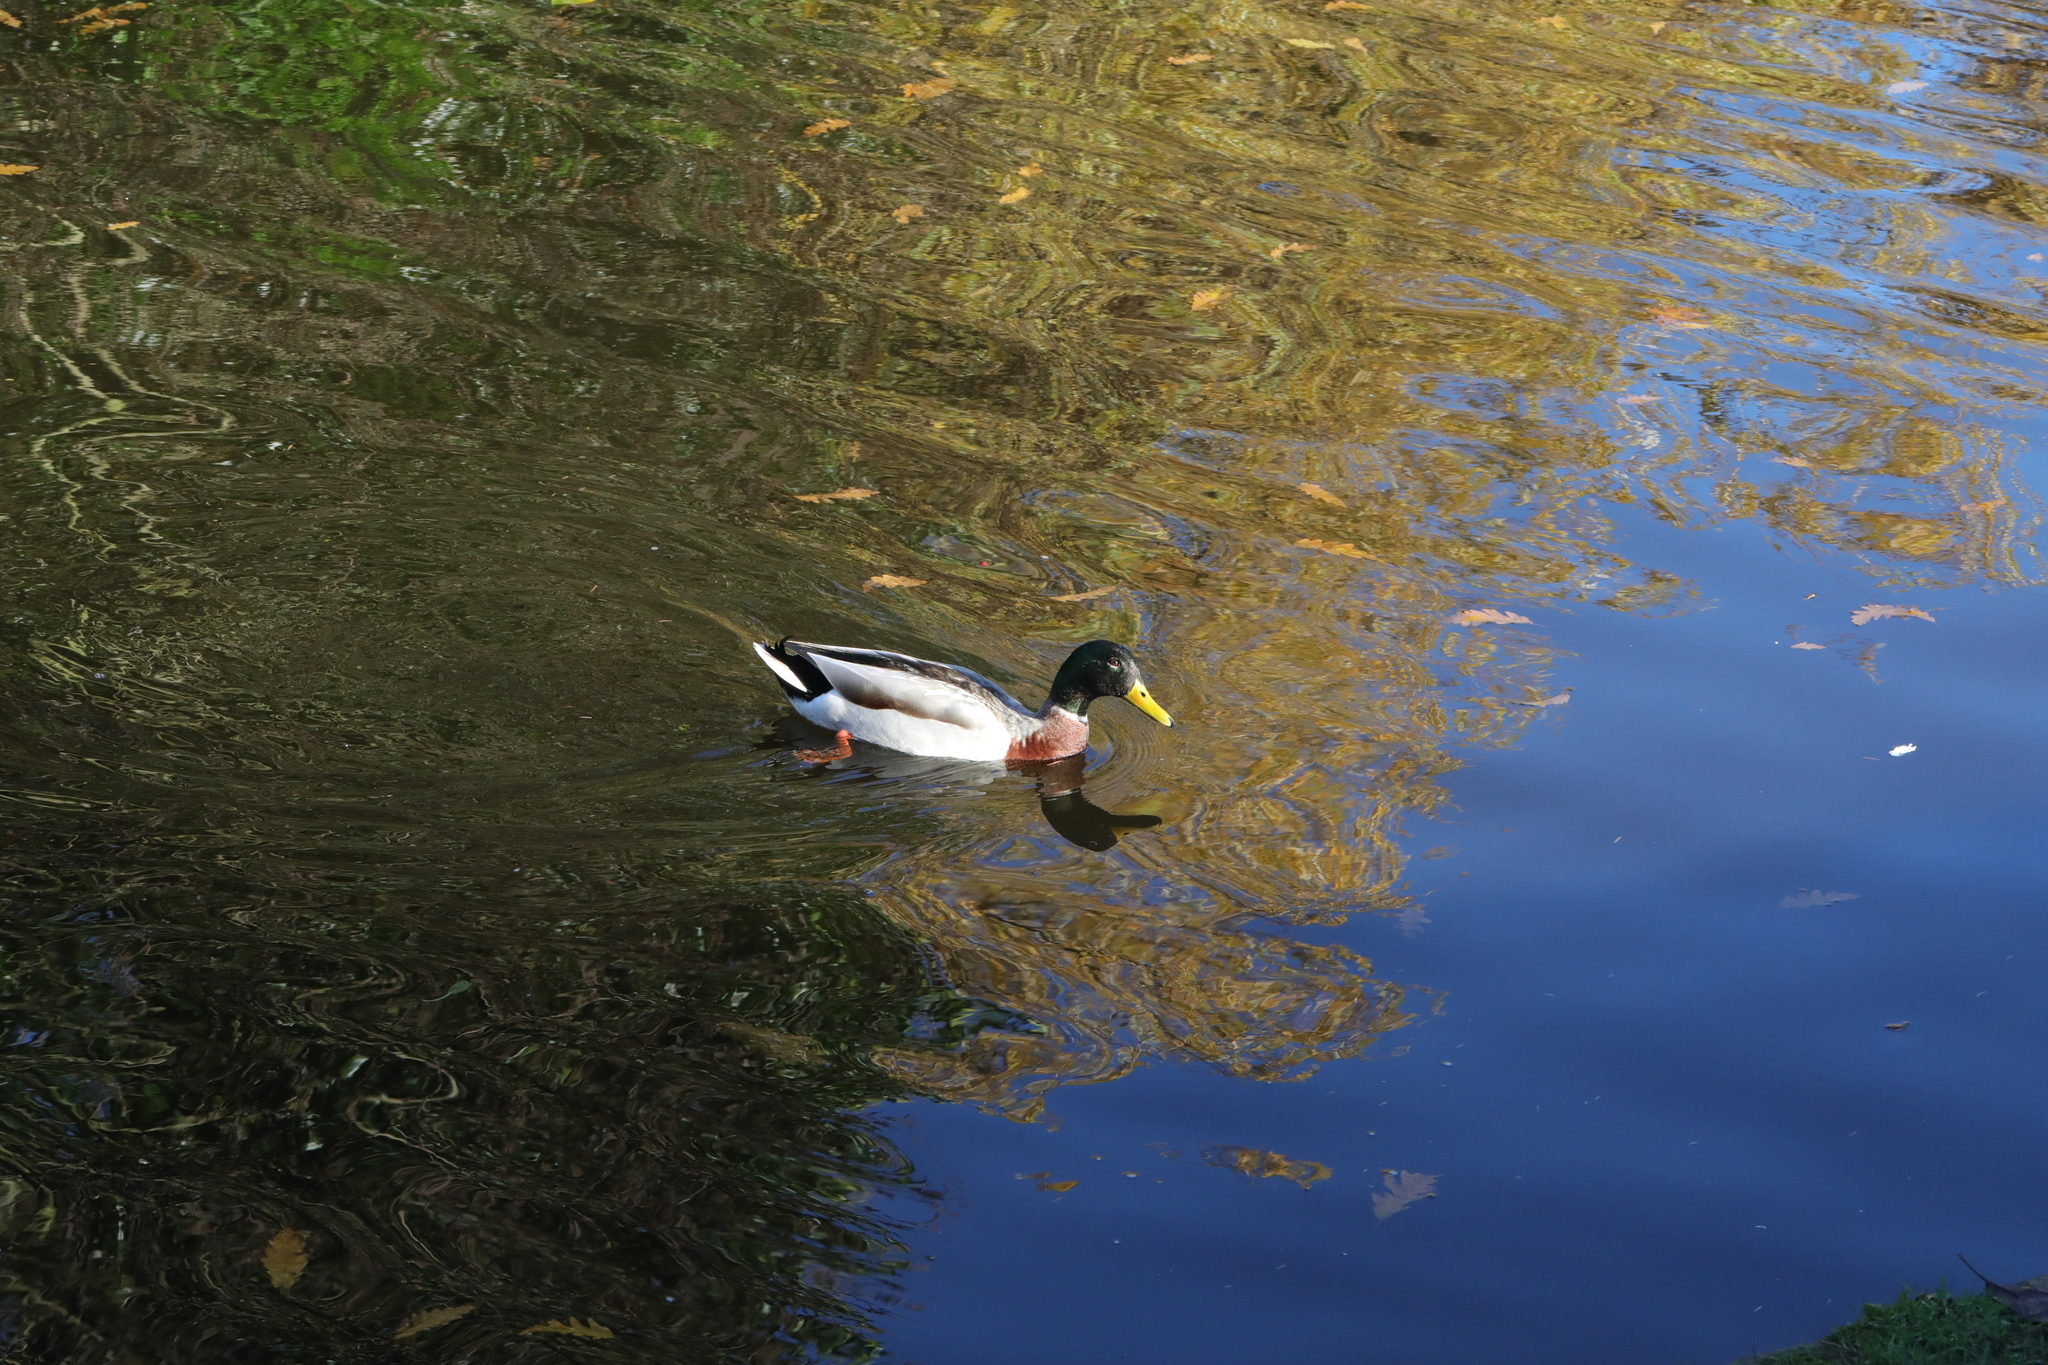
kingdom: Animalia
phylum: Chordata
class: Aves
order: Anseriformes
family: Anatidae
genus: Anas
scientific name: Anas platyrhynchos
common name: Mallard
